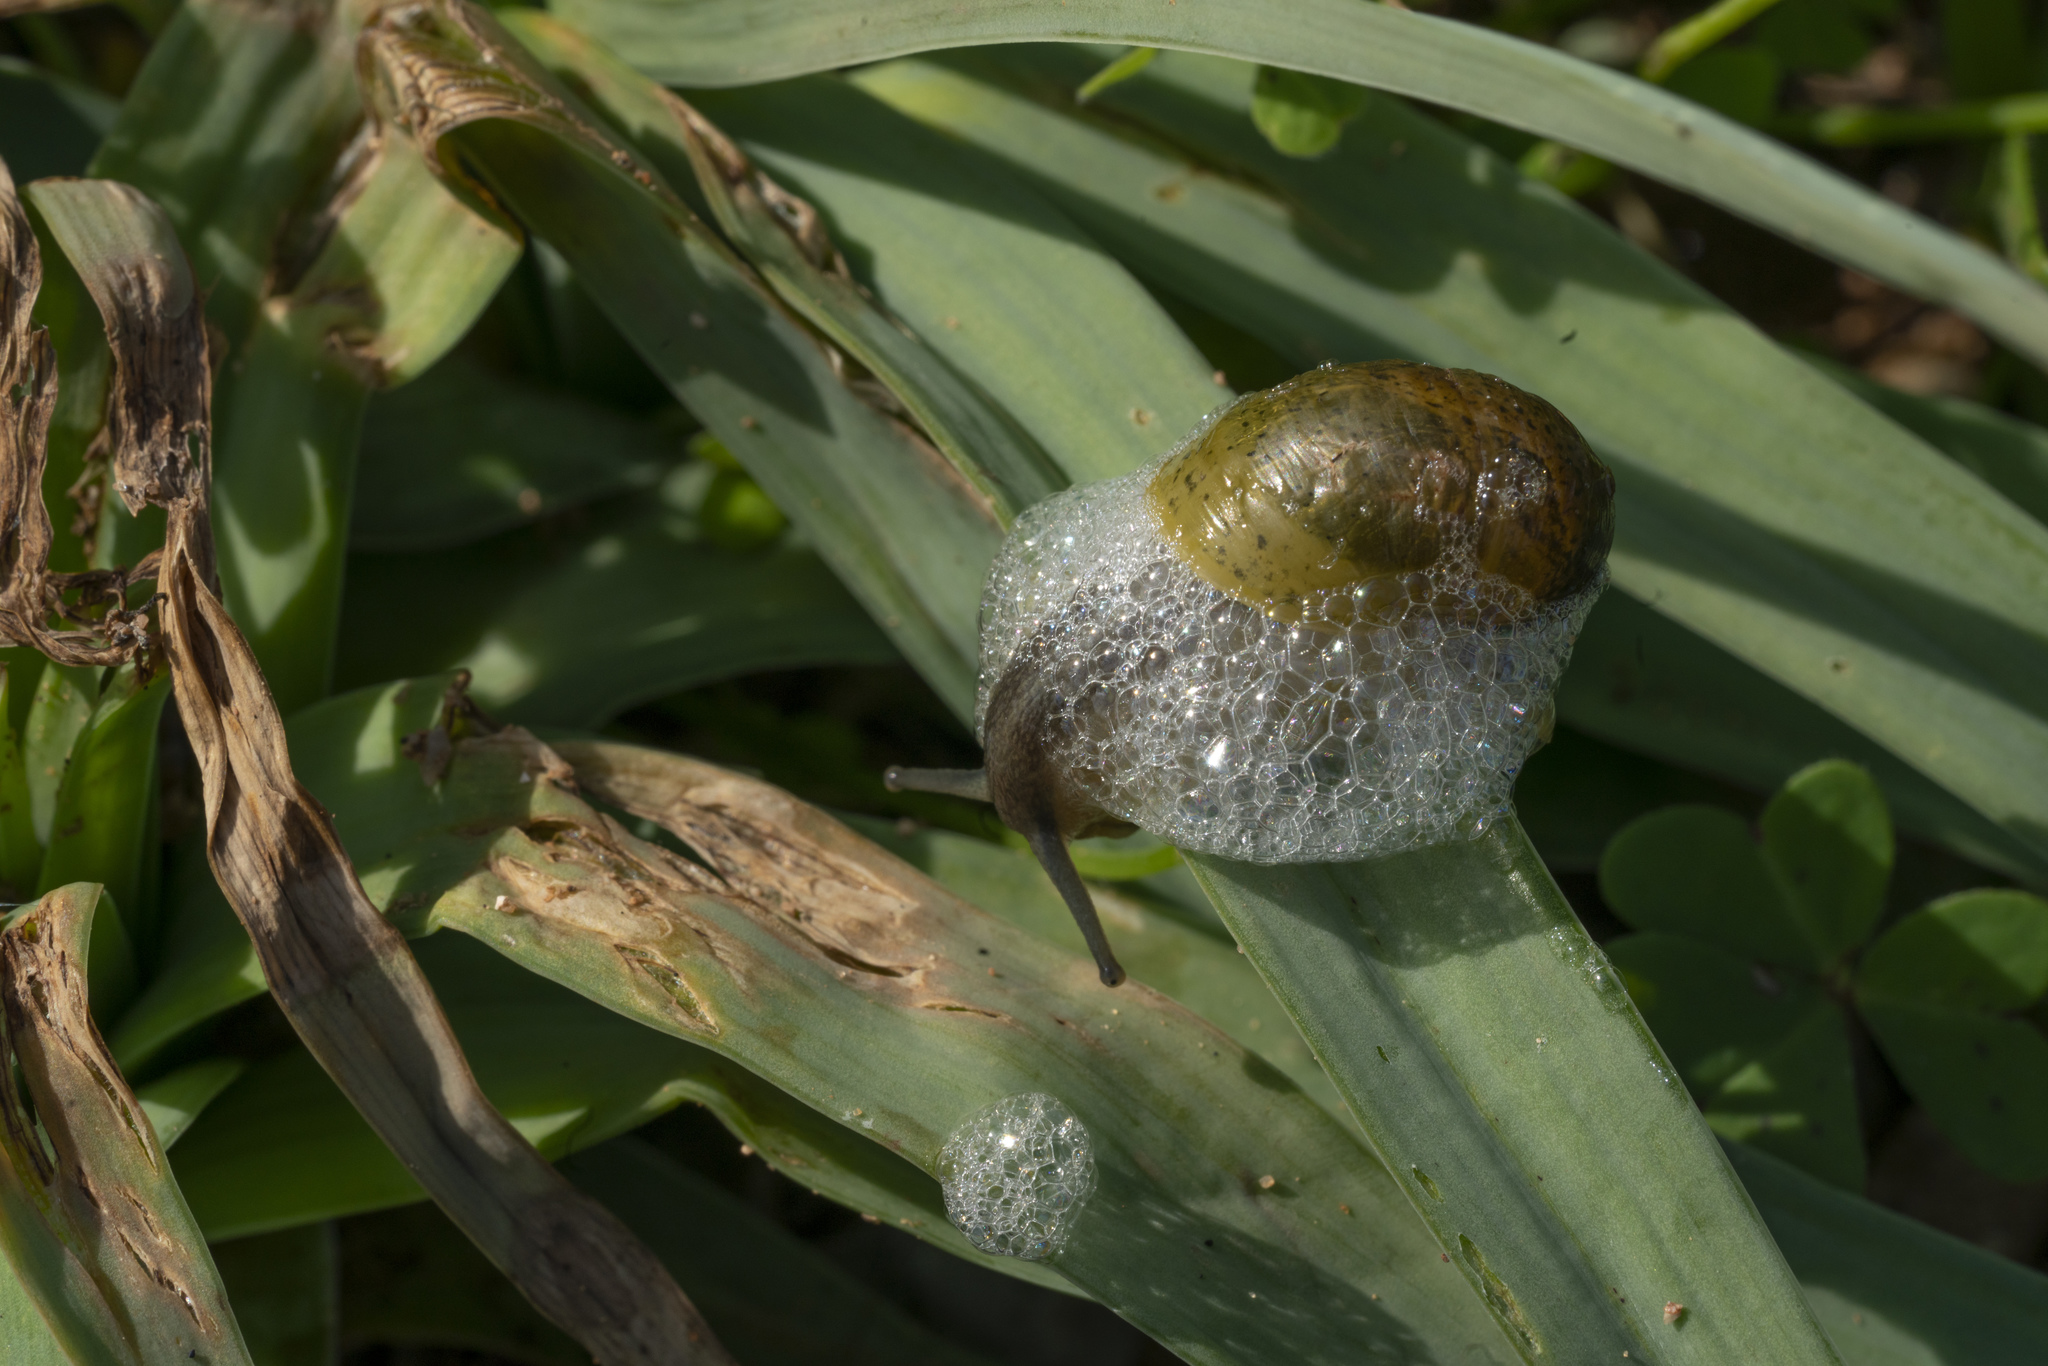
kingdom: Animalia
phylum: Mollusca
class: Gastropoda
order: Stylommatophora
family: Helicidae
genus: Cantareus
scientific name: Cantareus apertus
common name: Green gardensnail
